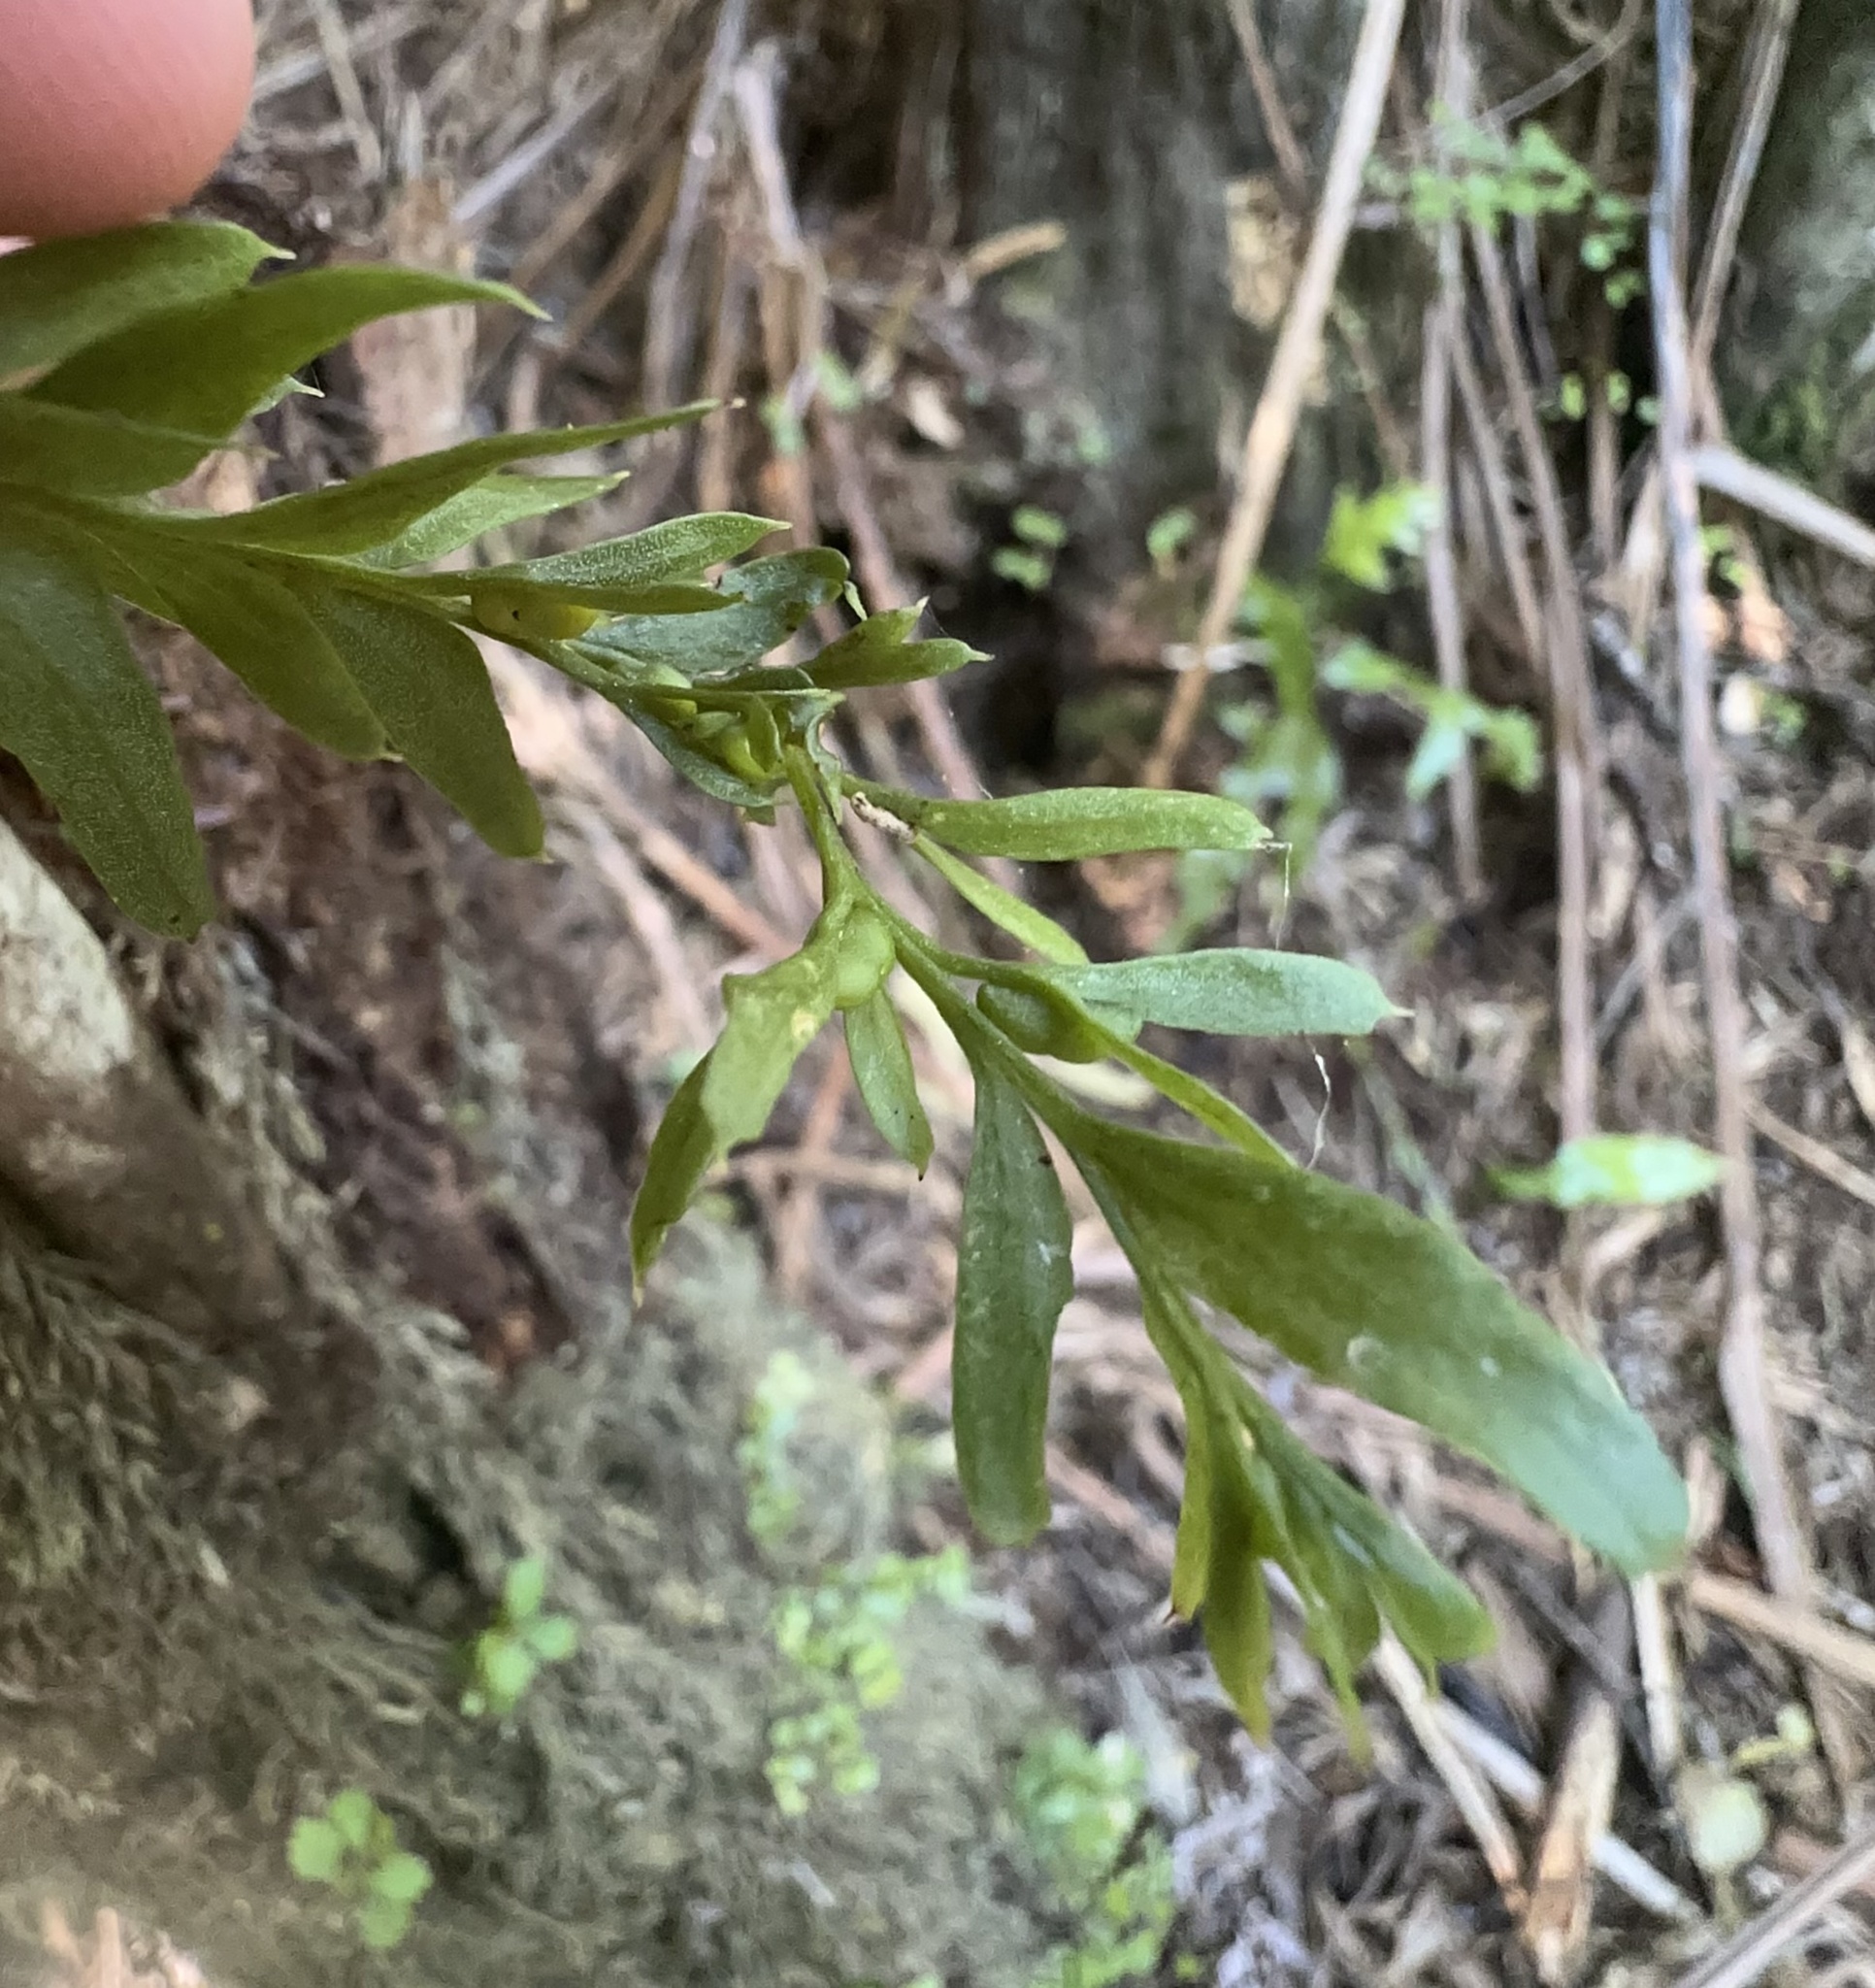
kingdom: Plantae
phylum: Tracheophyta
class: Polypodiopsida
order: Psilotales
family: Psilotaceae
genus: Tmesipteris
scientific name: Tmesipteris elongata
